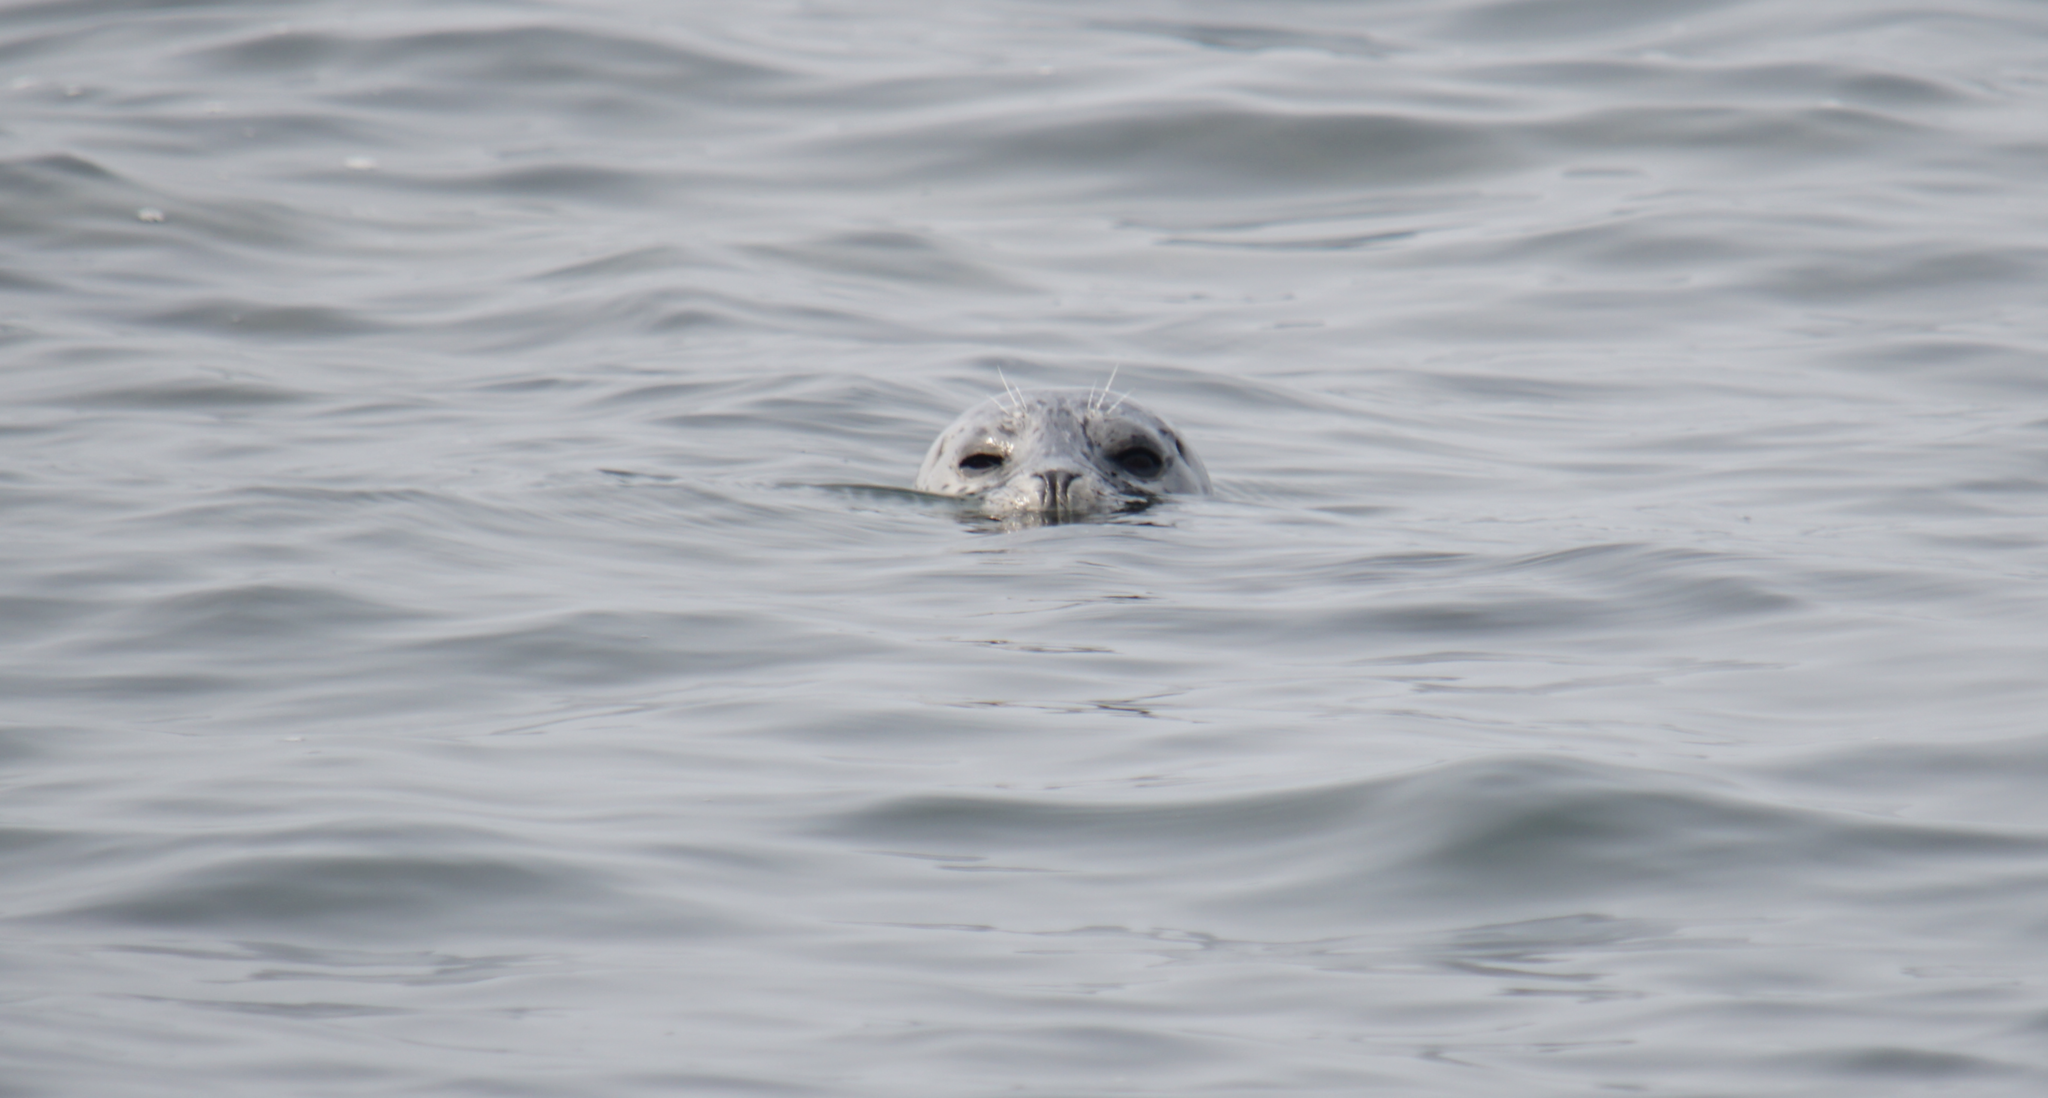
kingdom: Animalia
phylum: Chordata
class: Mammalia
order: Carnivora
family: Phocidae
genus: Phoca
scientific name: Phoca vitulina
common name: Harbor seal
